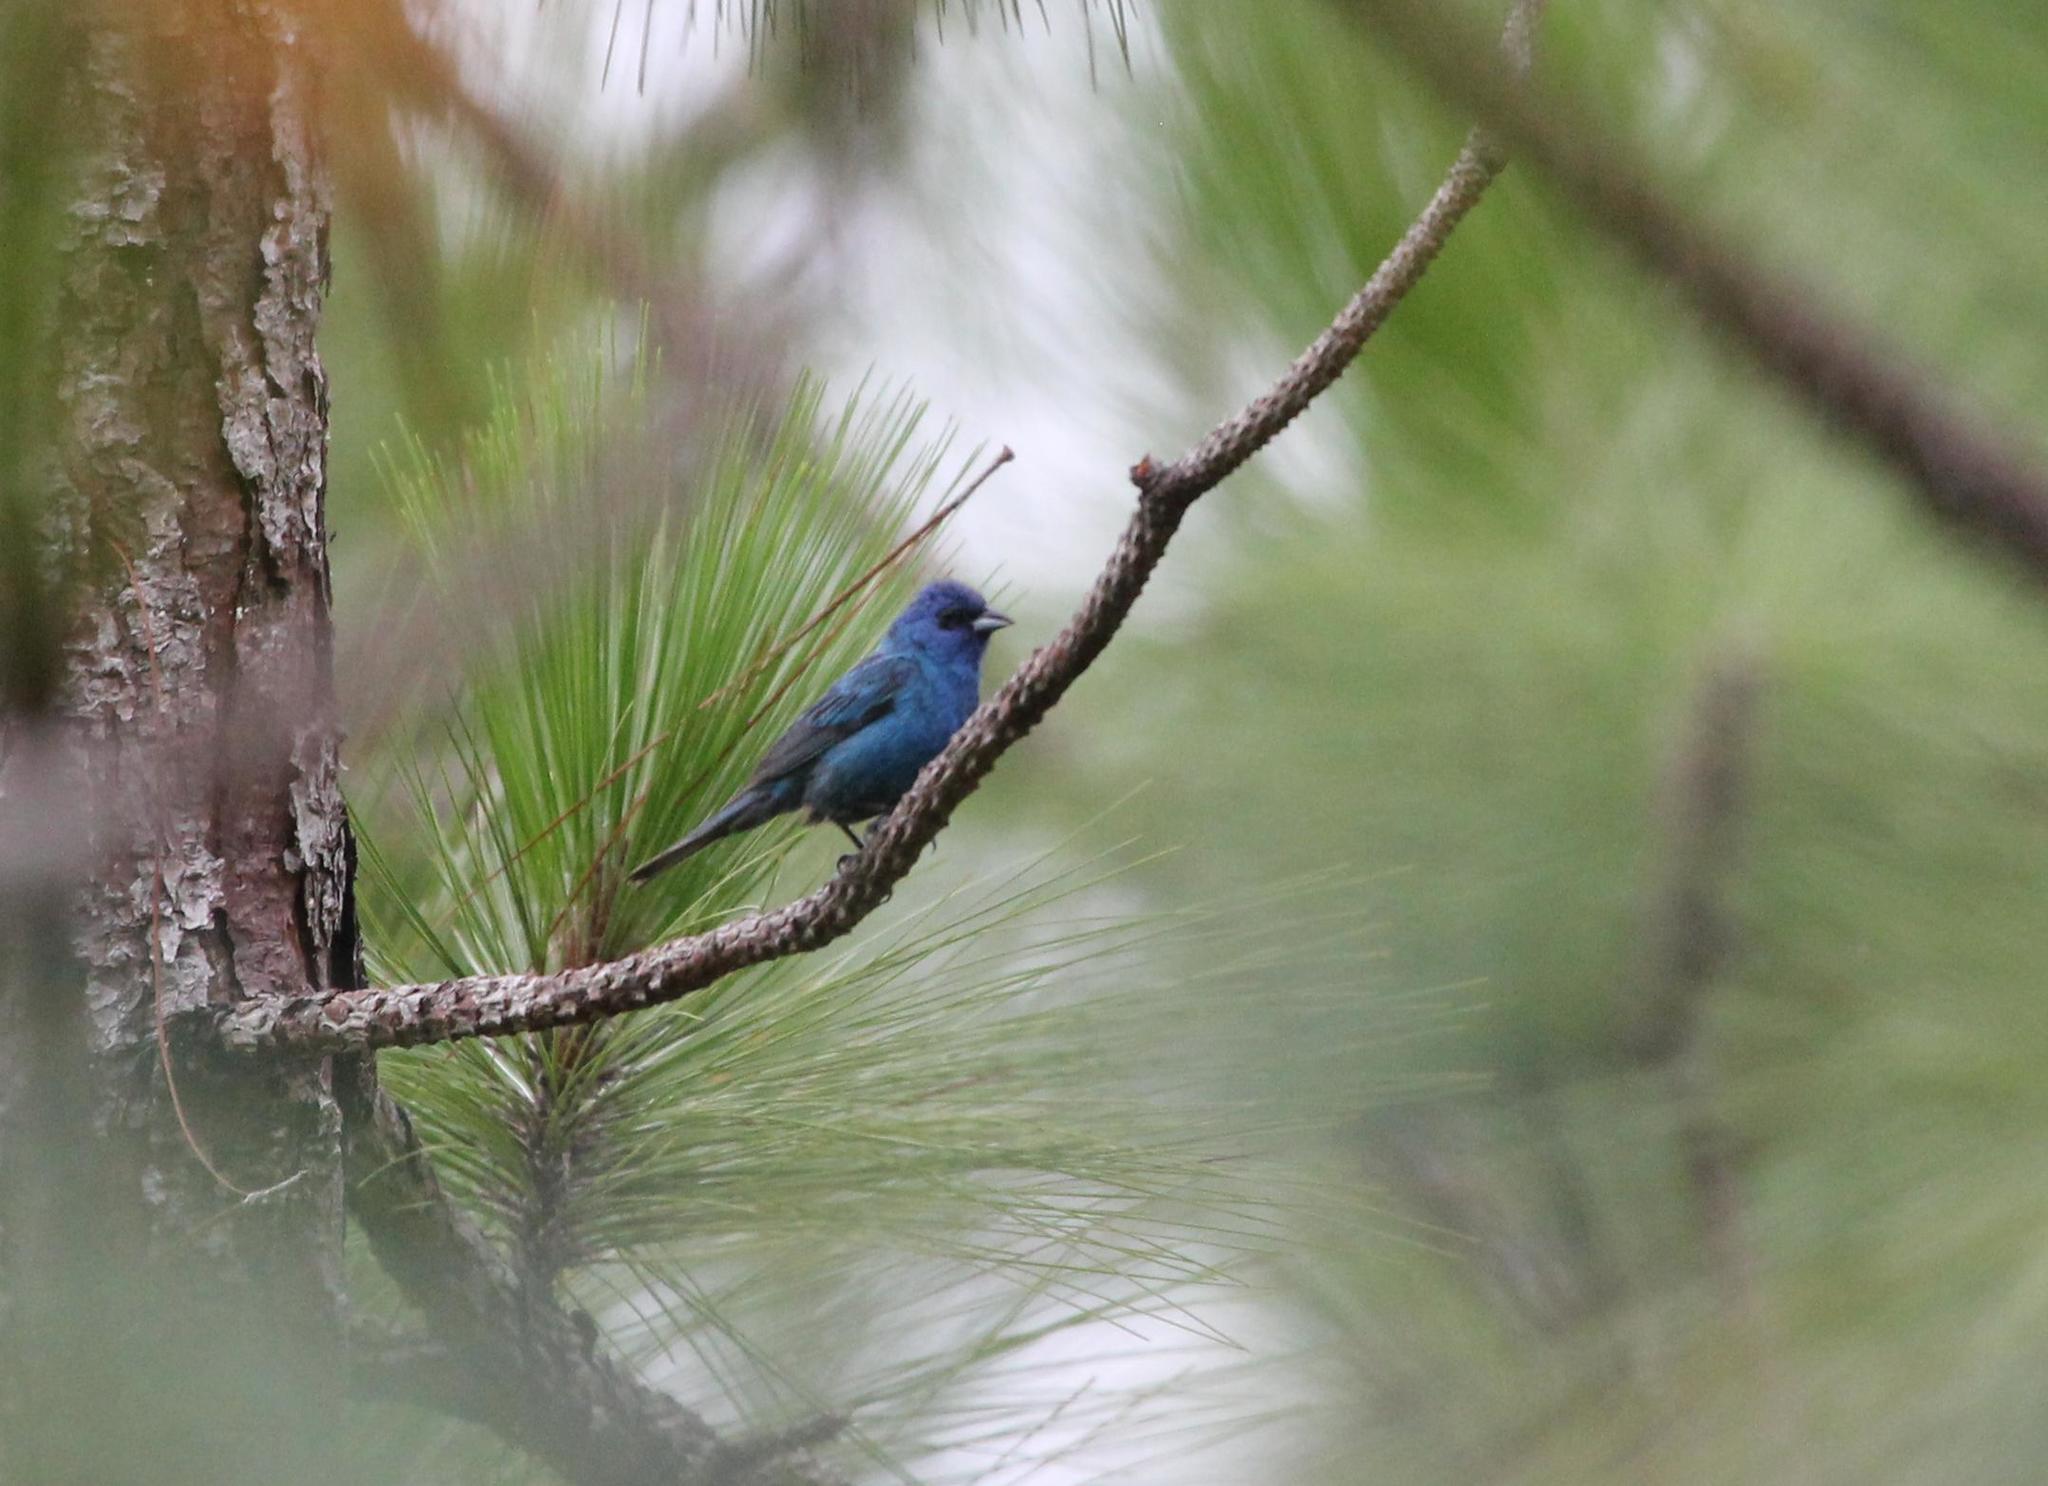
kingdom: Animalia
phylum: Chordata
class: Aves
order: Passeriformes
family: Cardinalidae
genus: Passerina
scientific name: Passerina cyanea
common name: Indigo bunting
